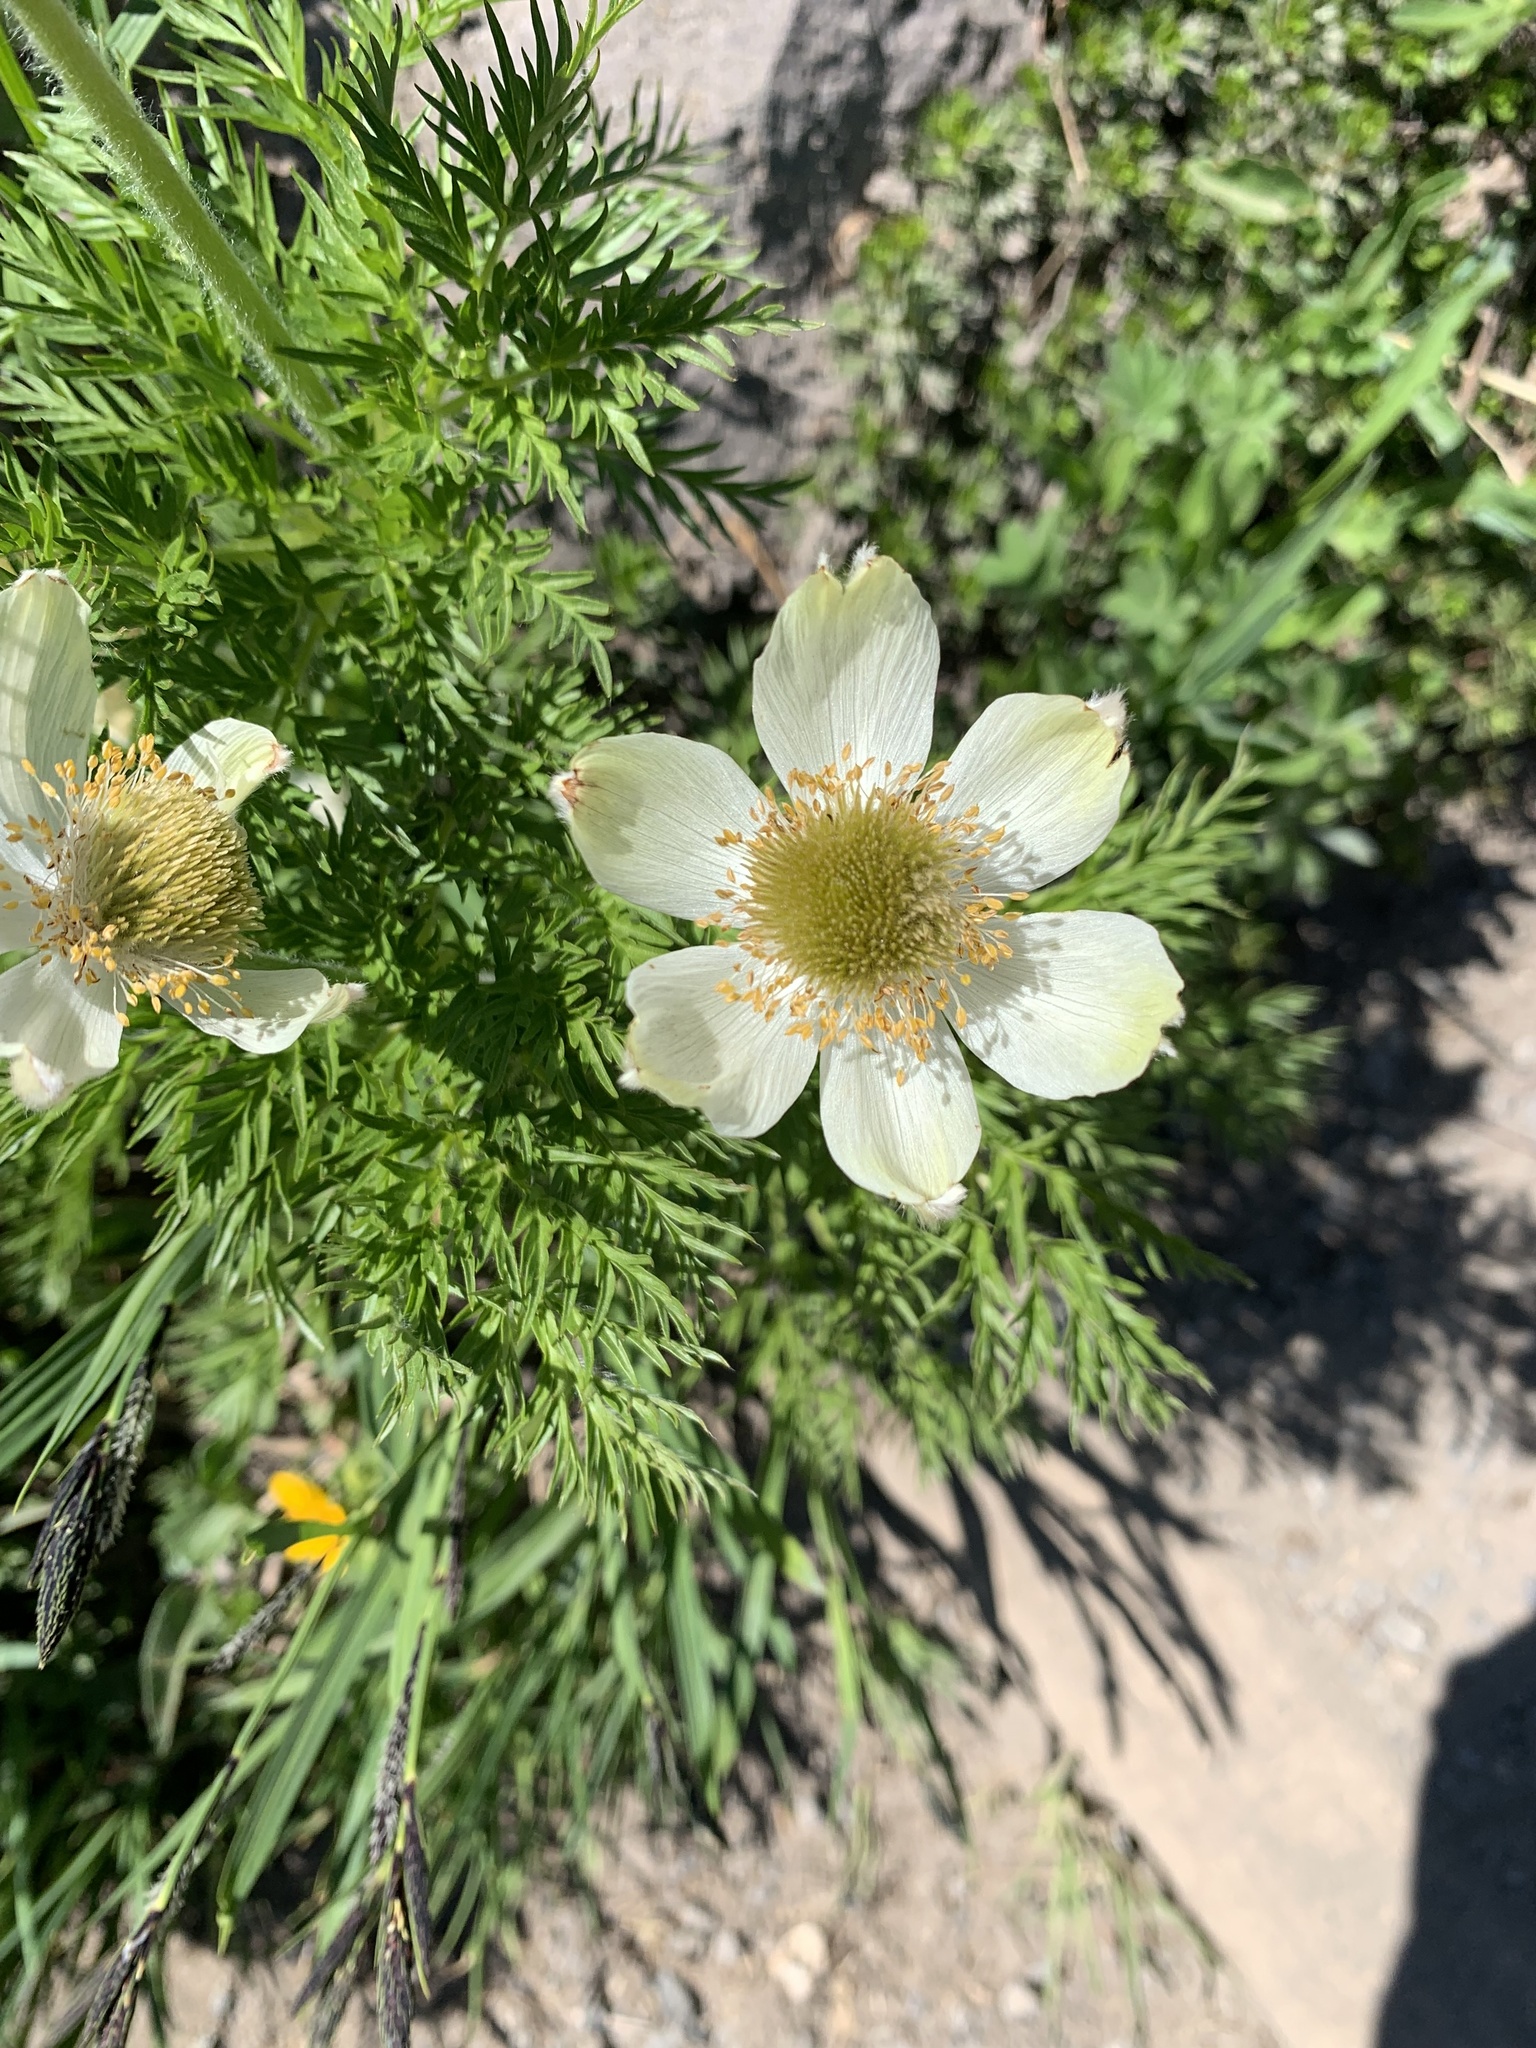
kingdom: Plantae
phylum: Tracheophyta
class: Magnoliopsida
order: Ranunculales
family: Ranunculaceae
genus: Pulsatilla
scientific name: Pulsatilla occidentalis
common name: Mountain pasqueflower
